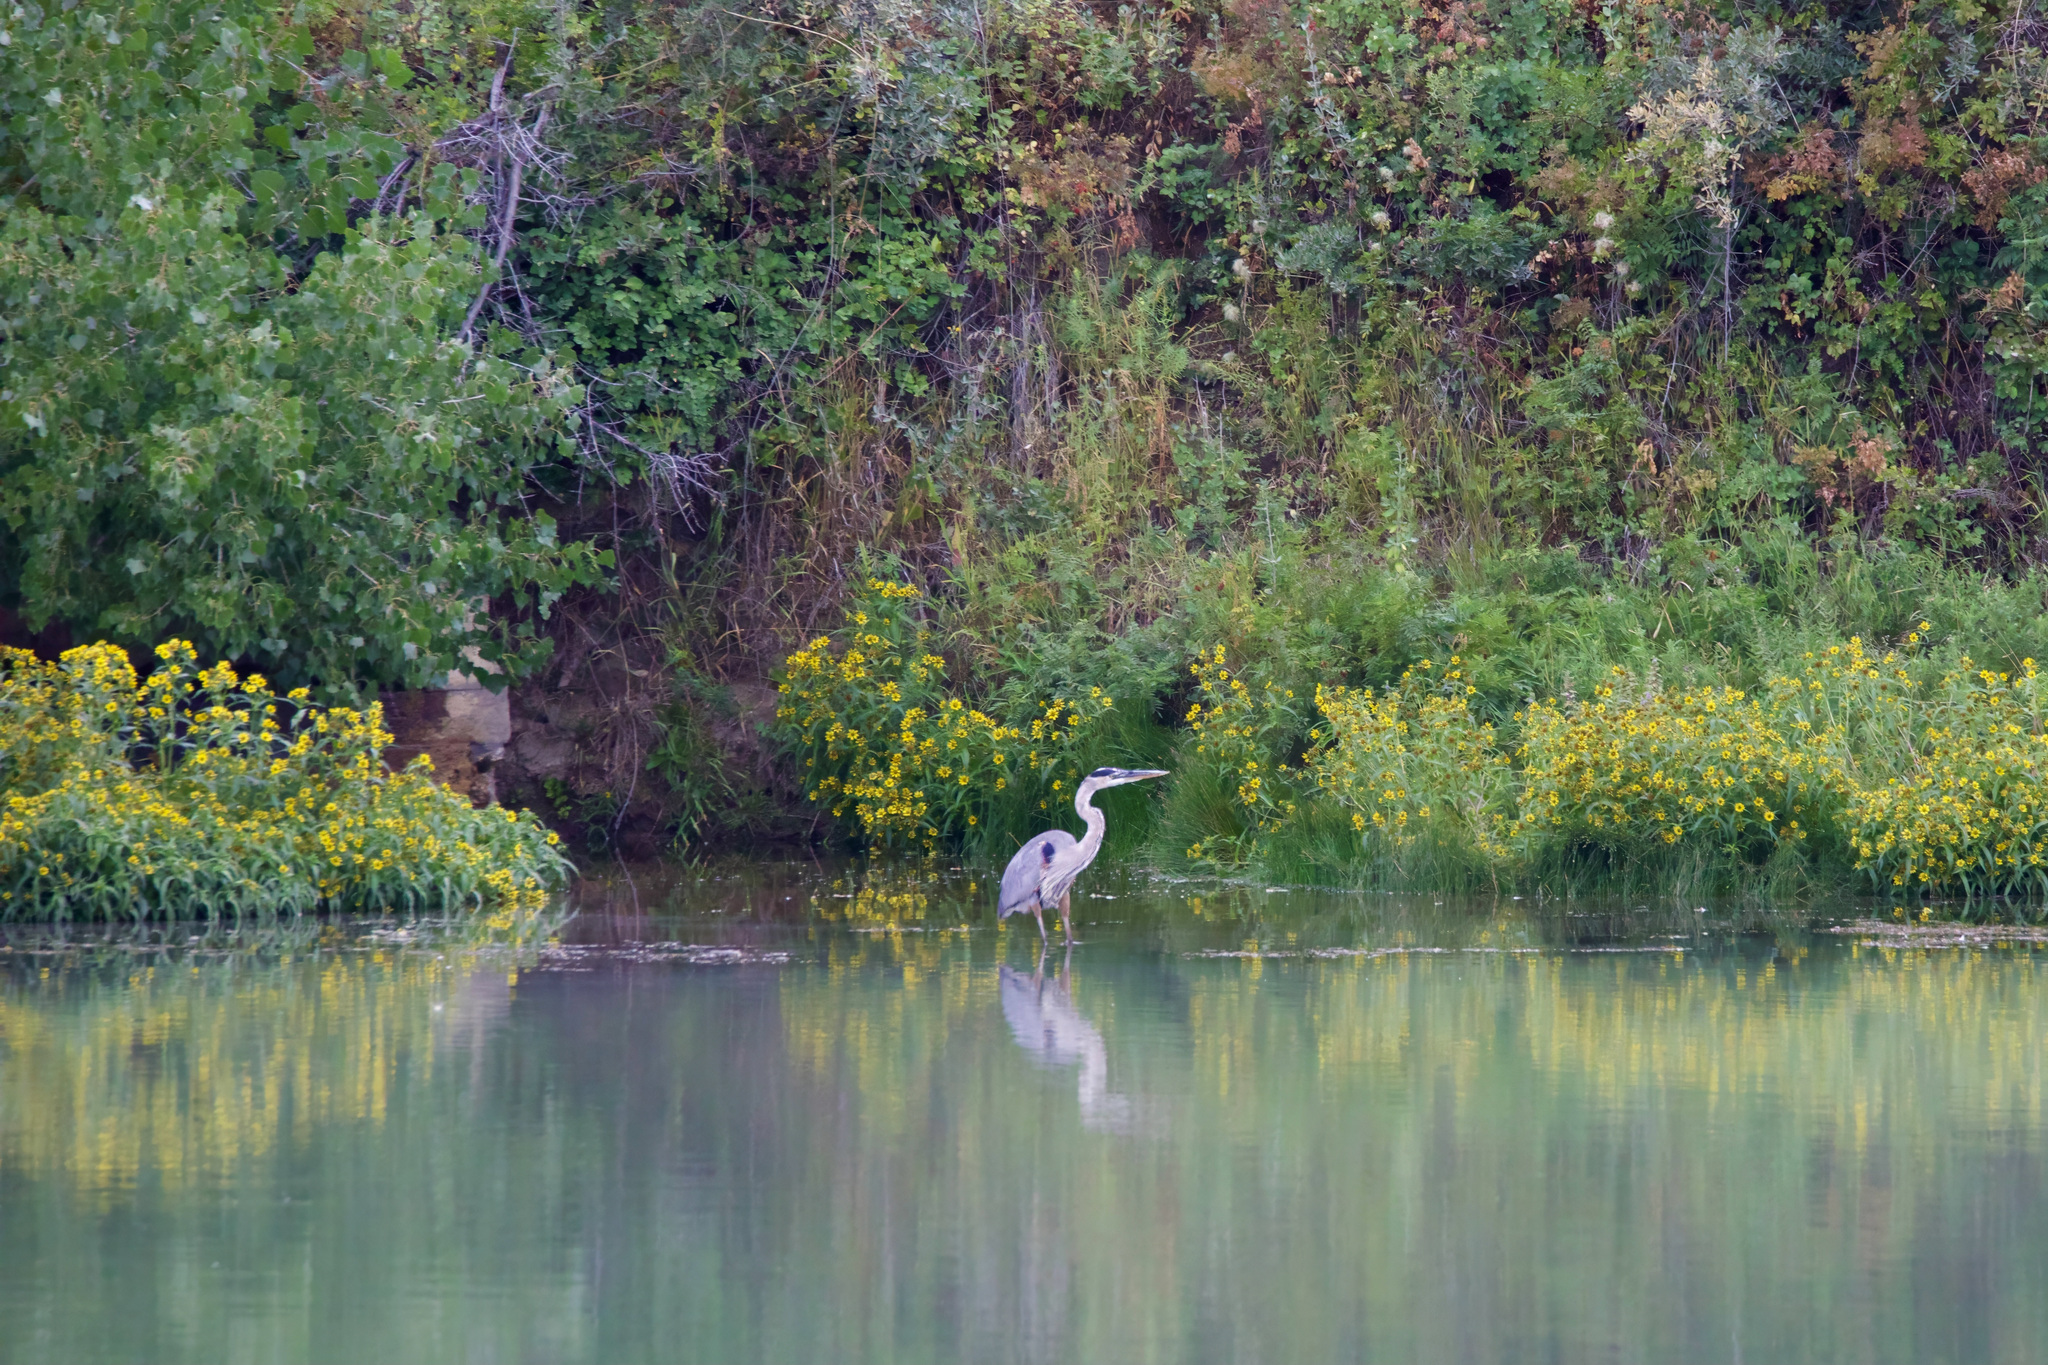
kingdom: Animalia
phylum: Chordata
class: Aves
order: Pelecaniformes
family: Ardeidae
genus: Ardea
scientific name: Ardea herodias
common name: Great blue heron
